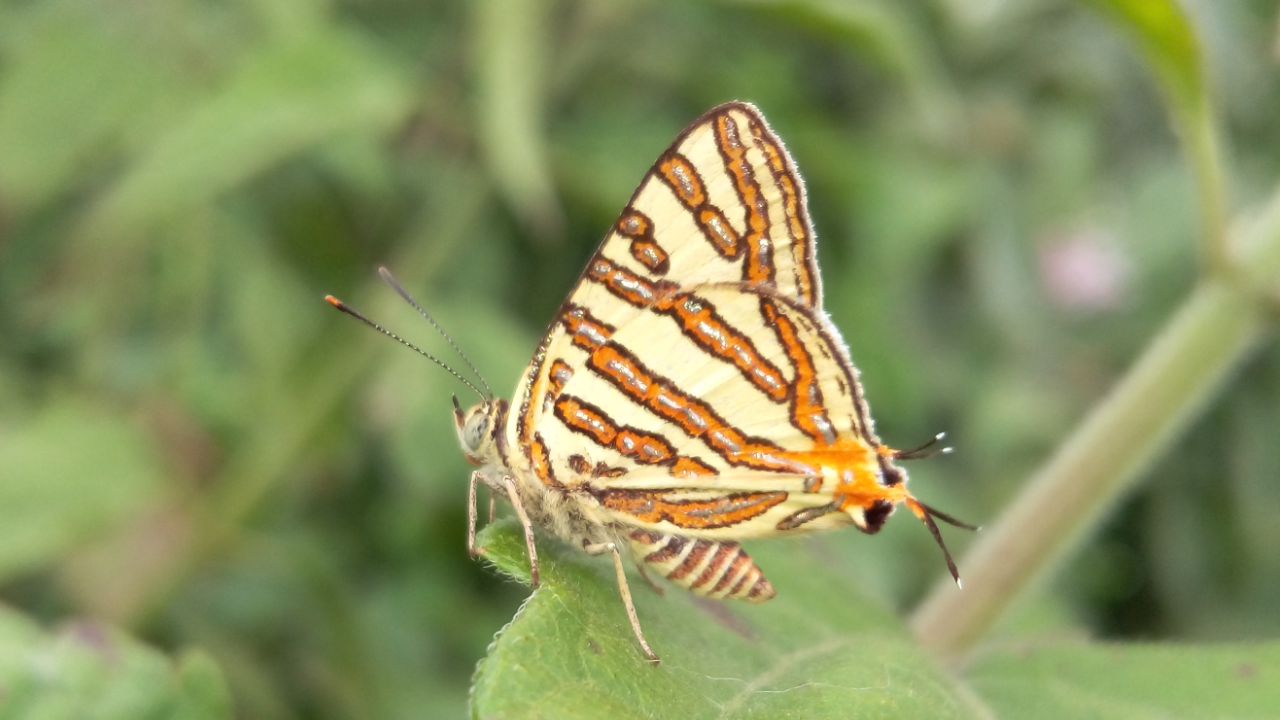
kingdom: Animalia
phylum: Arthropoda
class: Insecta
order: Lepidoptera
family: Lycaenidae
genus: Cigaritis
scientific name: Cigaritis vulcanus
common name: Common silverline
